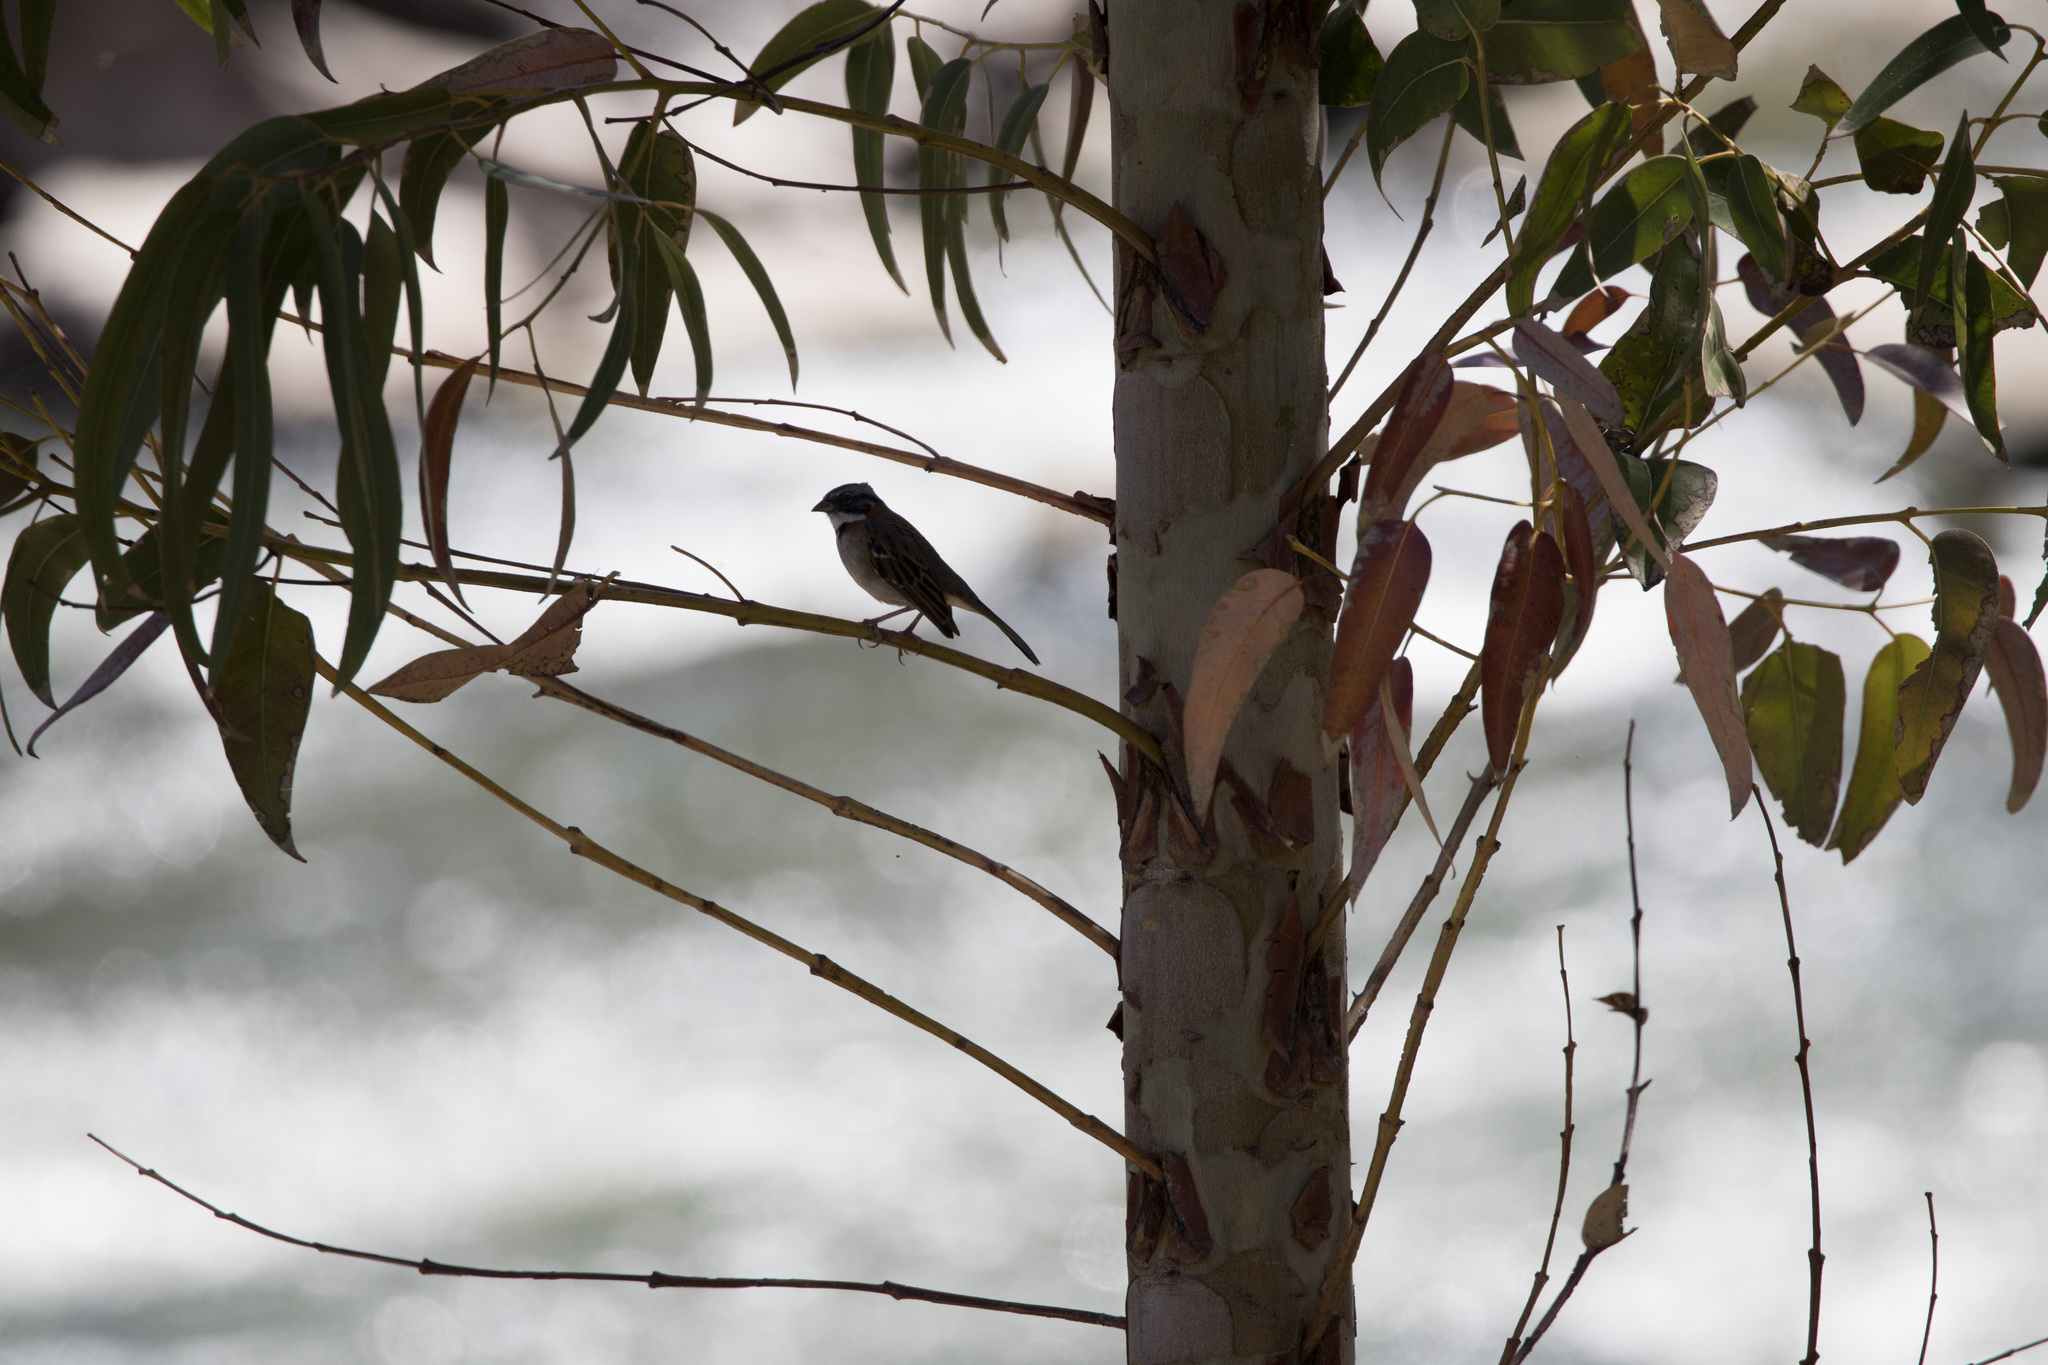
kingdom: Animalia
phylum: Chordata
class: Aves
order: Passeriformes
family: Passerellidae
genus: Zonotrichia
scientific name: Zonotrichia capensis
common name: Rufous-collared sparrow
